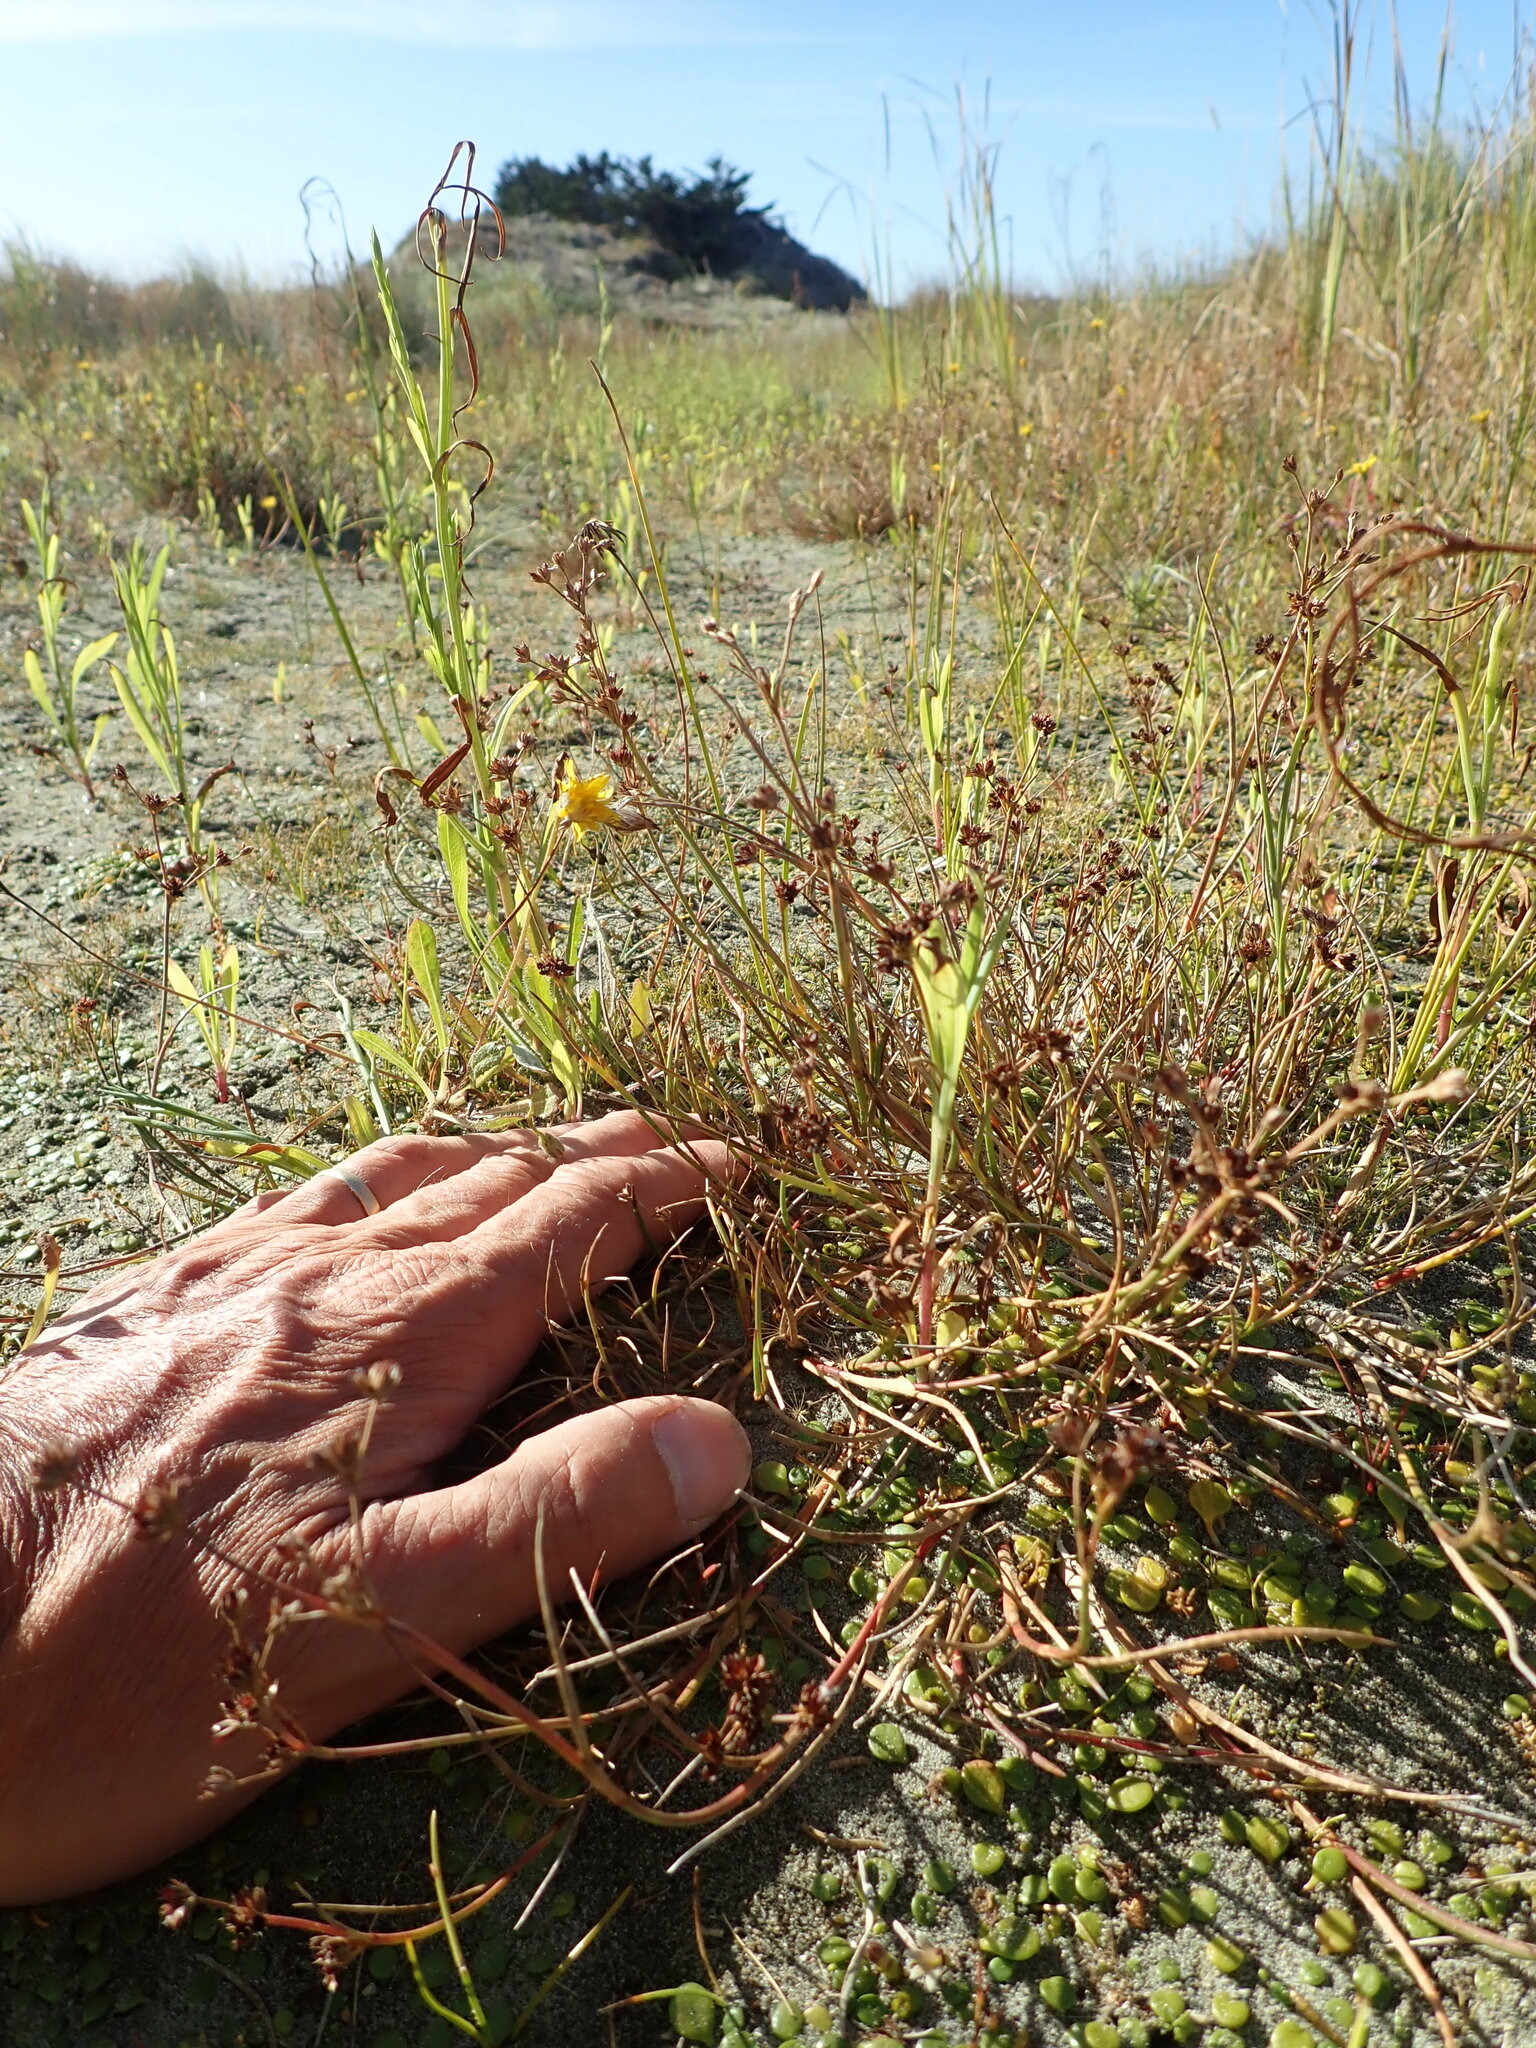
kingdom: Plantae
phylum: Tracheophyta
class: Liliopsida
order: Poales
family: Juncaceae
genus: Juncus
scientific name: Juncus articulatus
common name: Jointed rush
